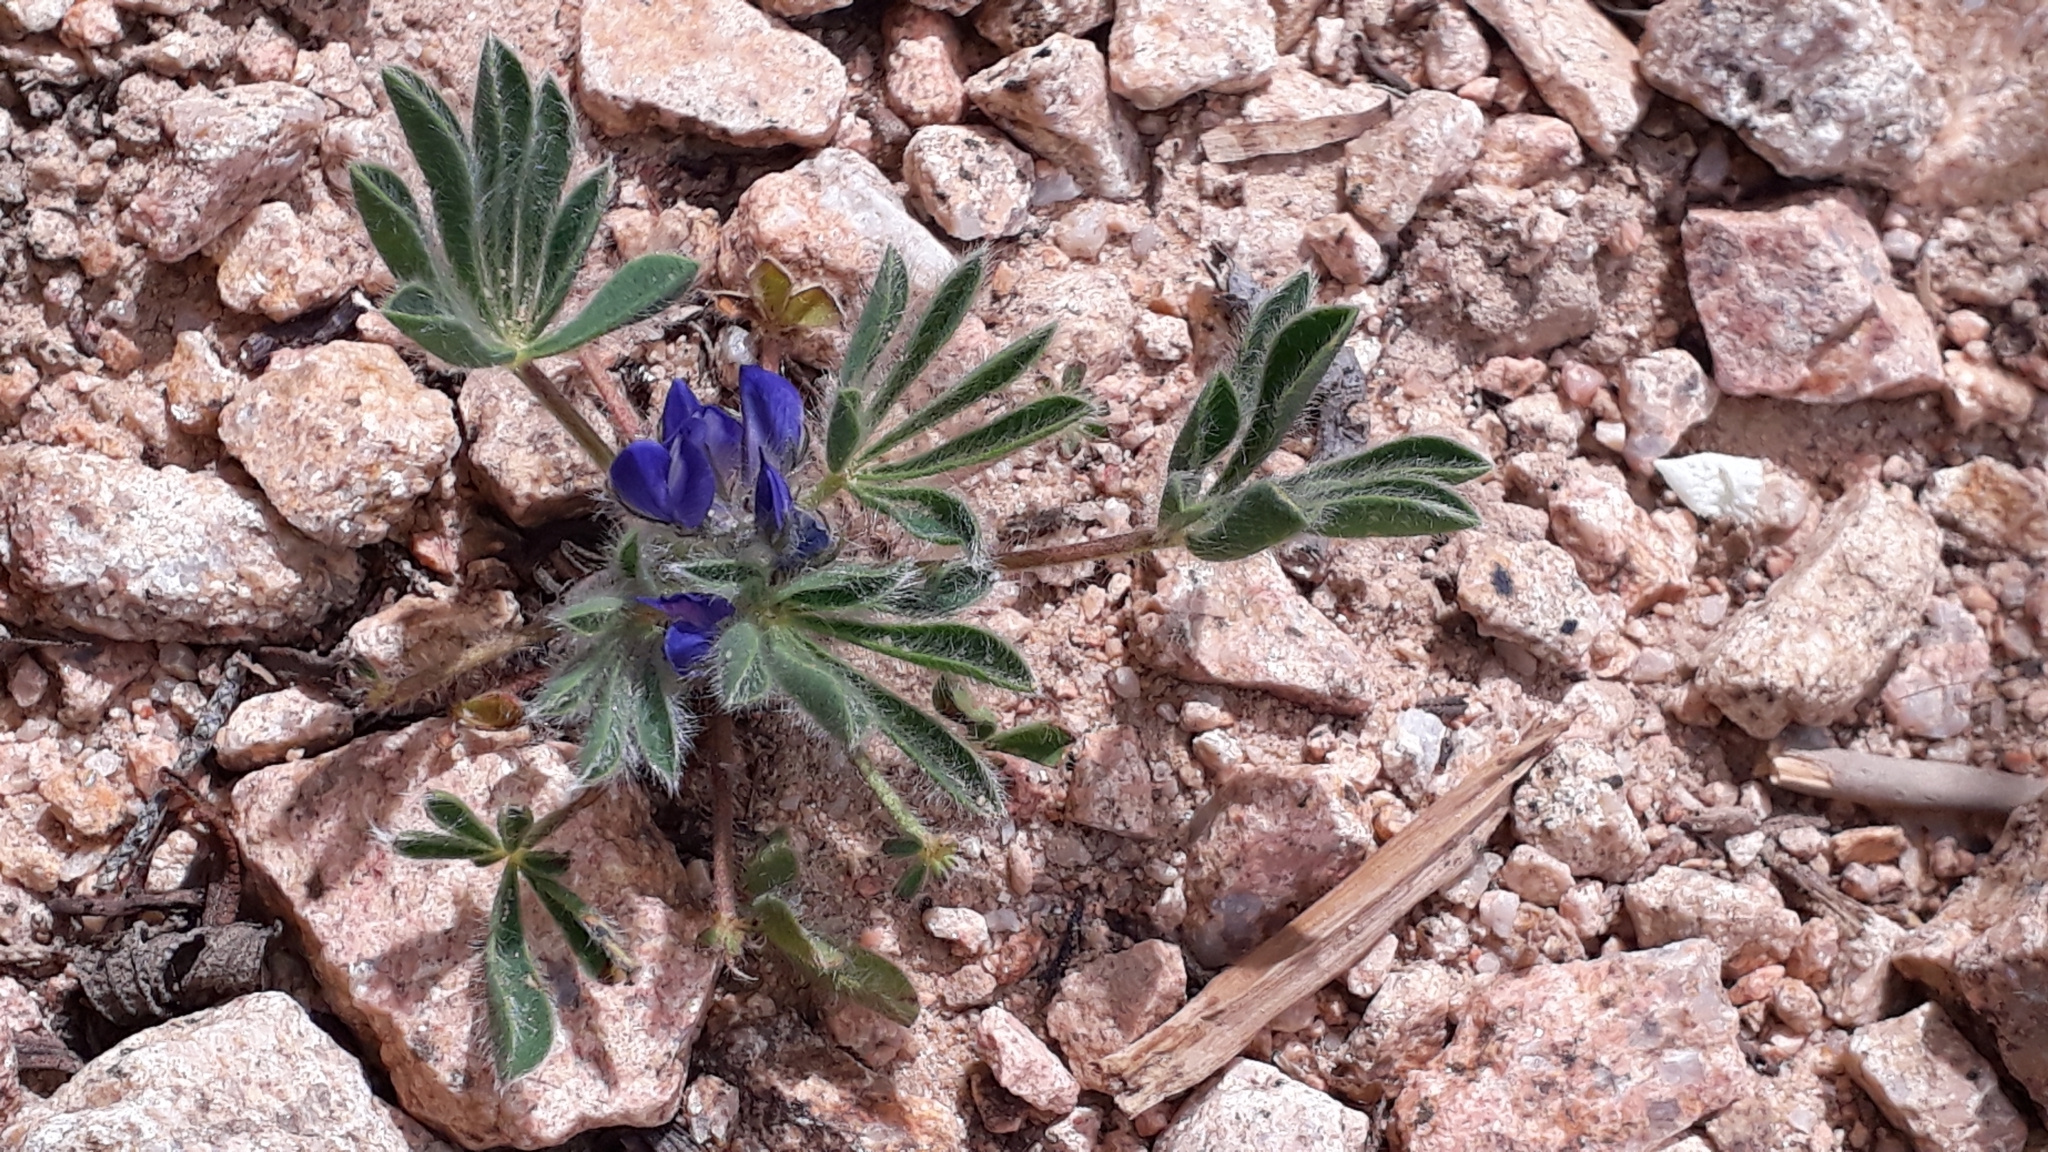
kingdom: Plantae
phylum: Tracheophyta
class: Magnoliopsida
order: Fabales
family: Fabaceae
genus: Lupinus
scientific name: Lupinus gussoneanus
